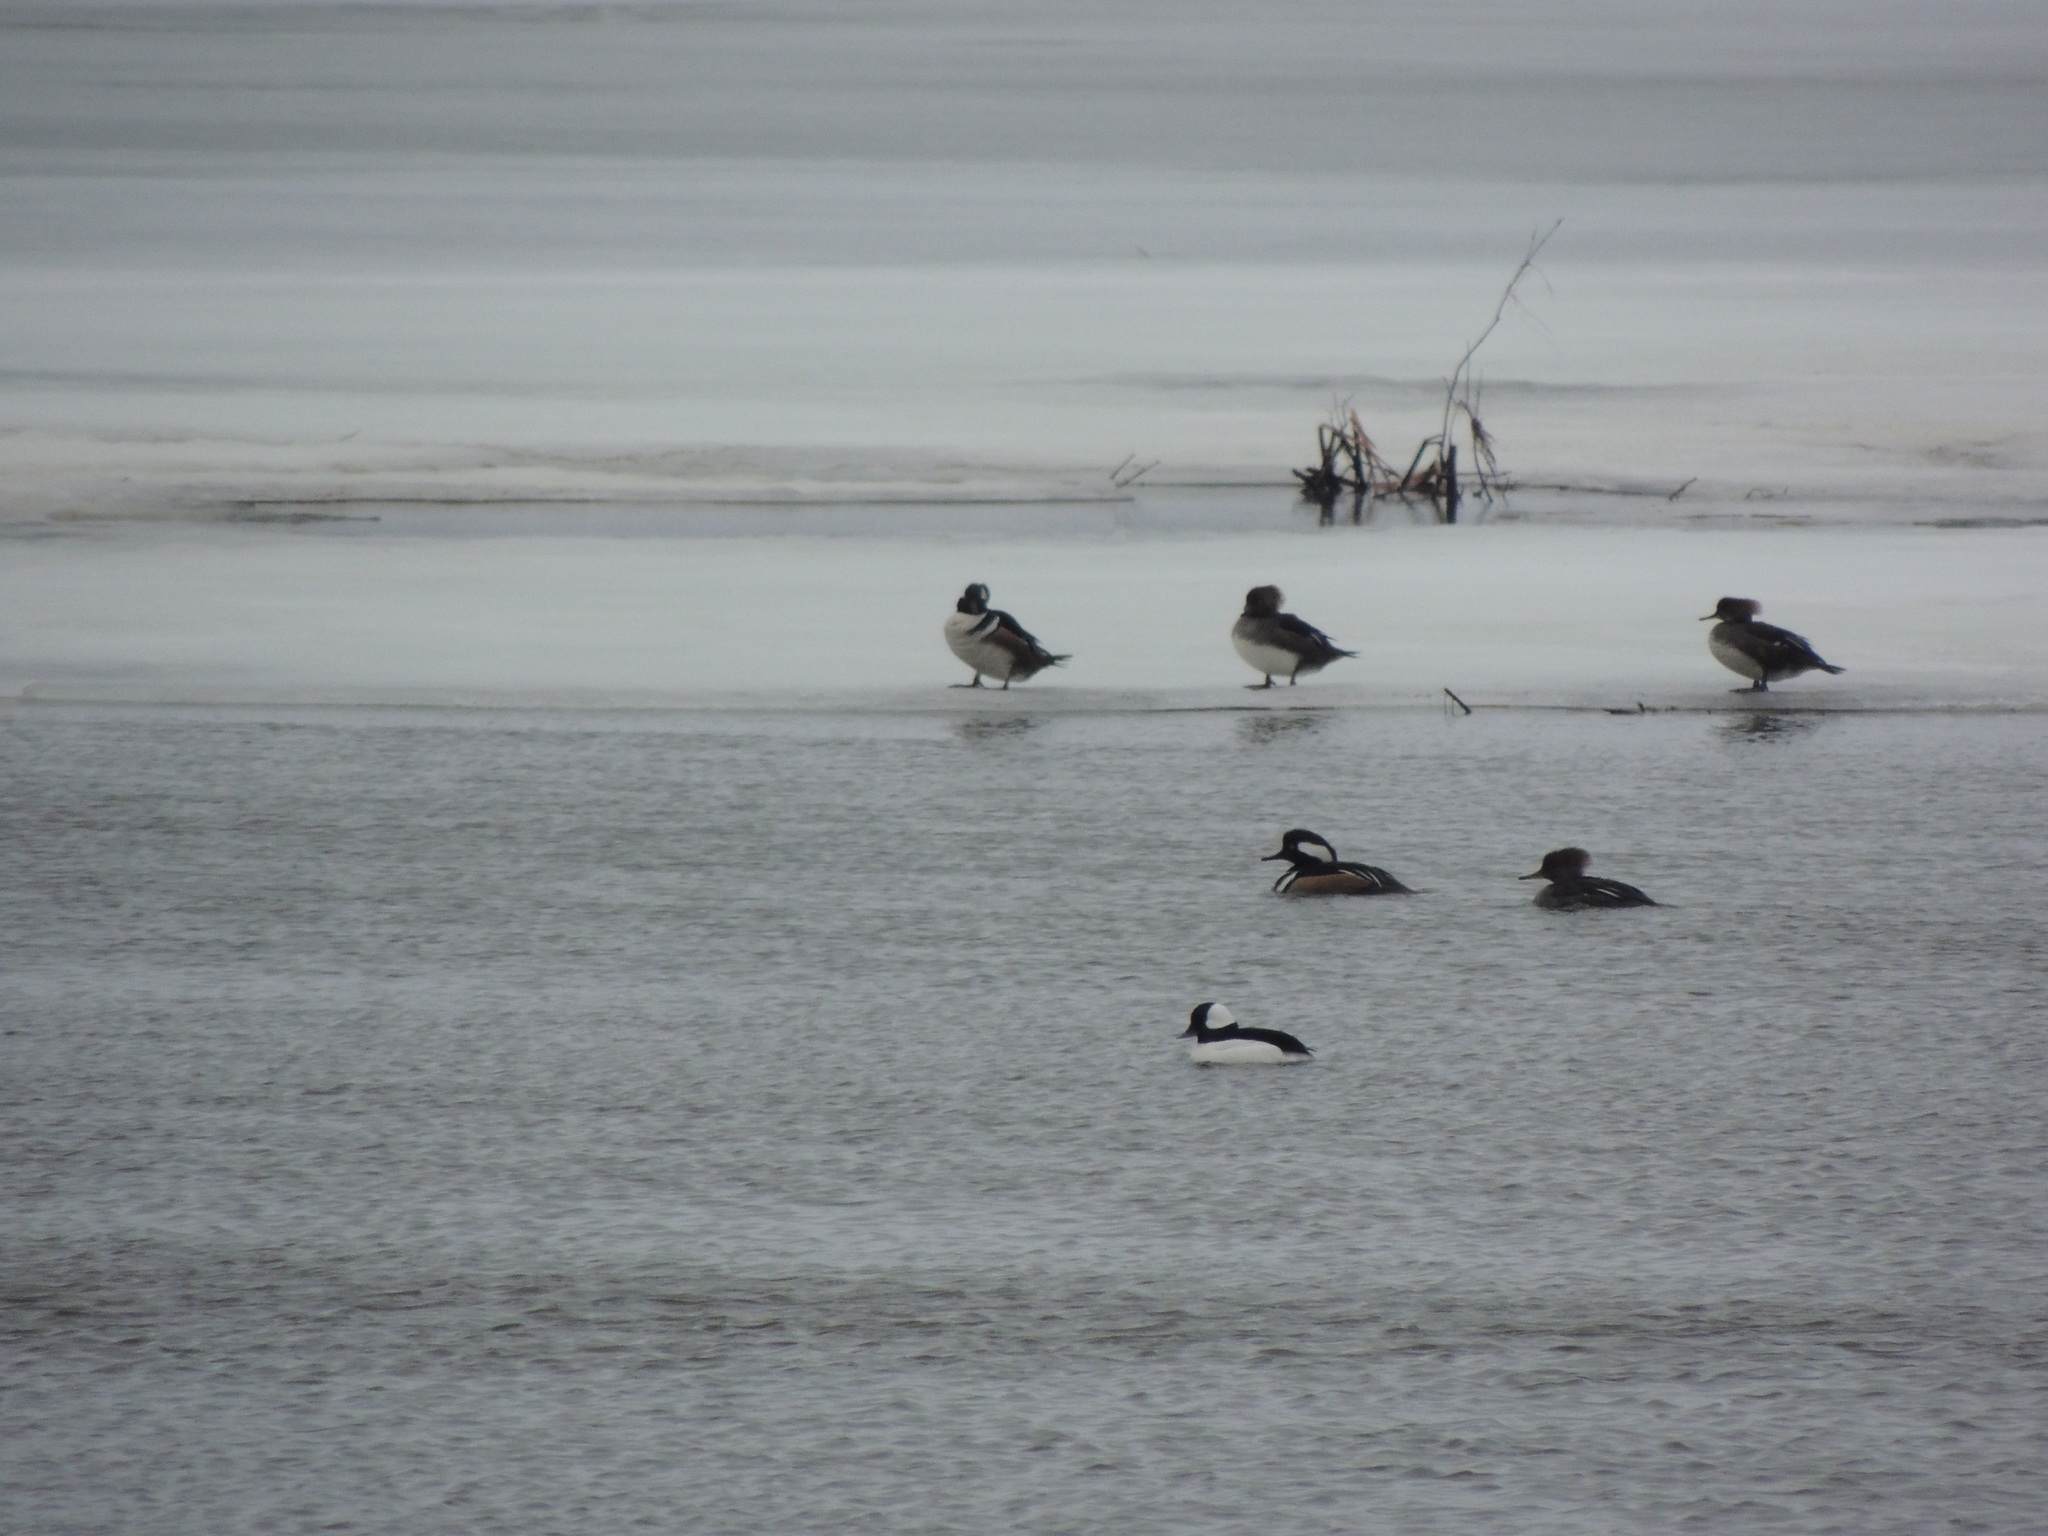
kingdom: Animalia
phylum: Chordata
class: Aves
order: Anseriformes
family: Anatidae
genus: Lophodytes
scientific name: Lophodytes cucullatus
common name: Hooded merganser
